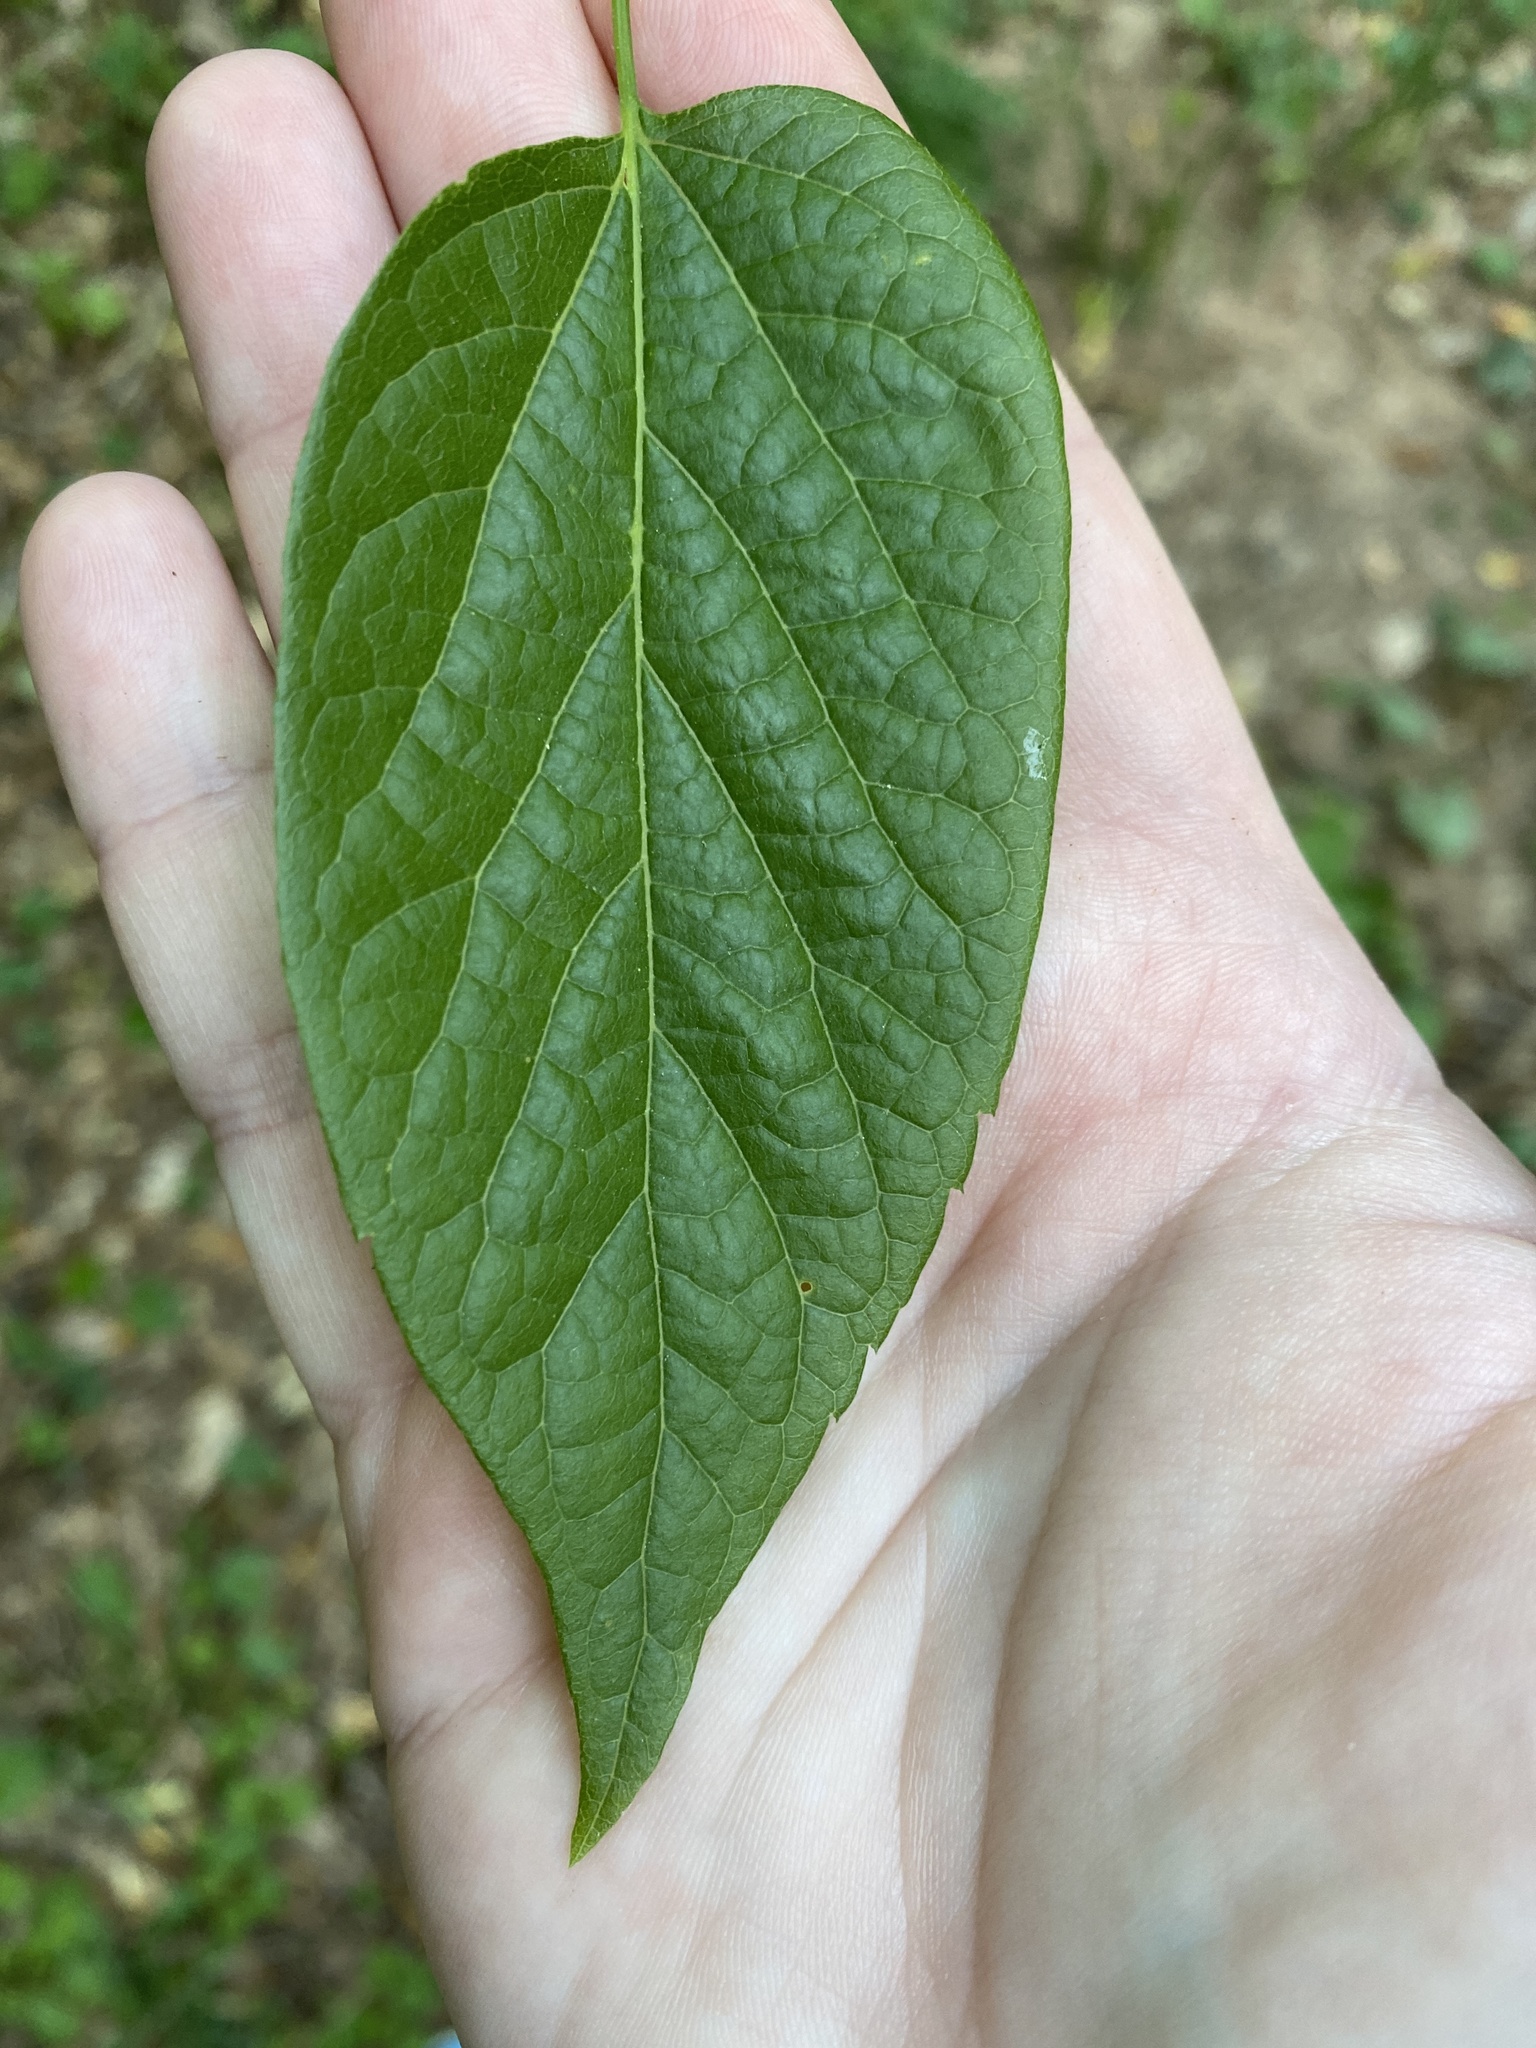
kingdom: Plantae
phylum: Tracheophyta
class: Magnoliopsida
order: Rosales
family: Cannabaceae
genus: Celtis
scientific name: Celtis laevigata
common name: Sugarberry
